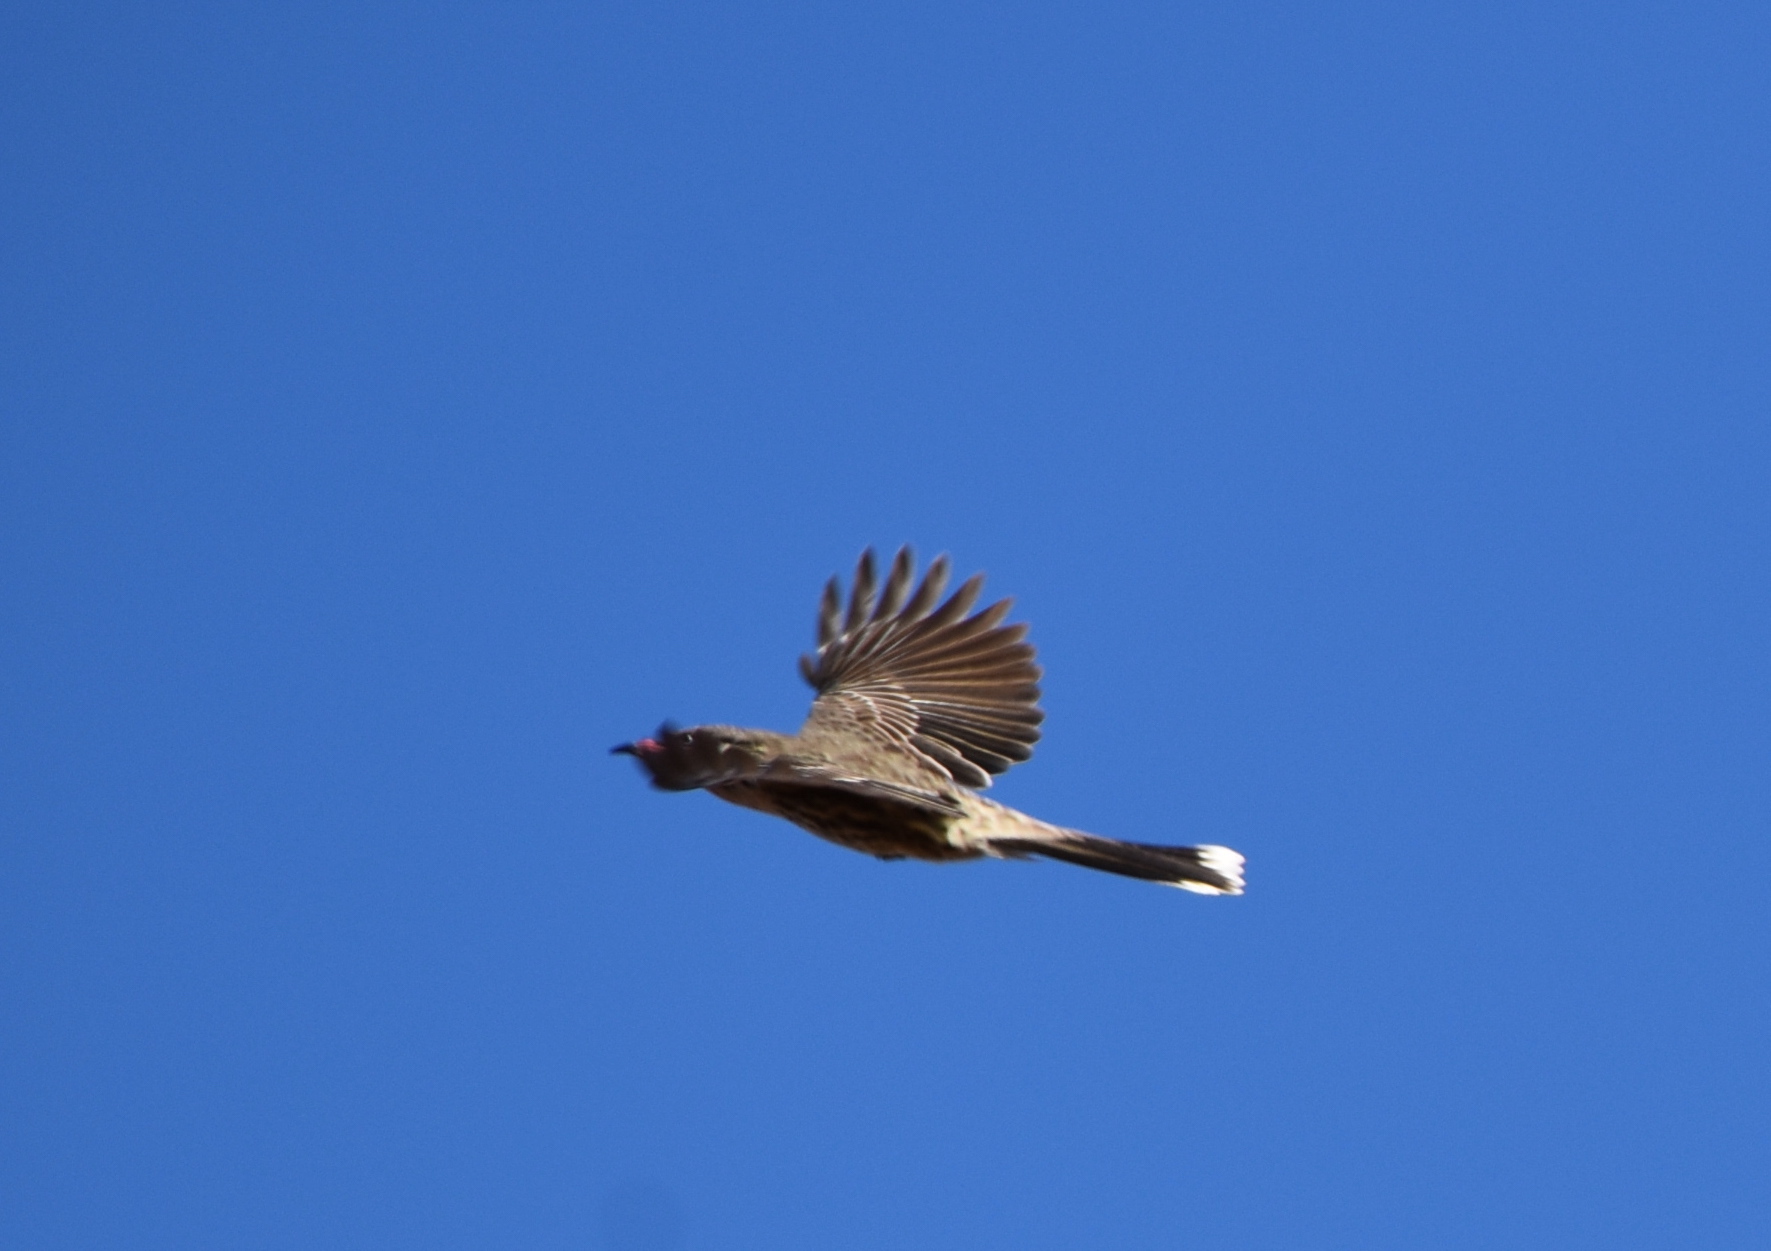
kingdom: Animalia
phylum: Chordata
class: Aves
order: Passeriformes
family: Meliphagidae
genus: Acanthagenys
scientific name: Acanthagenys rufogularis
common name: Spiny-cheeked honeyeater
